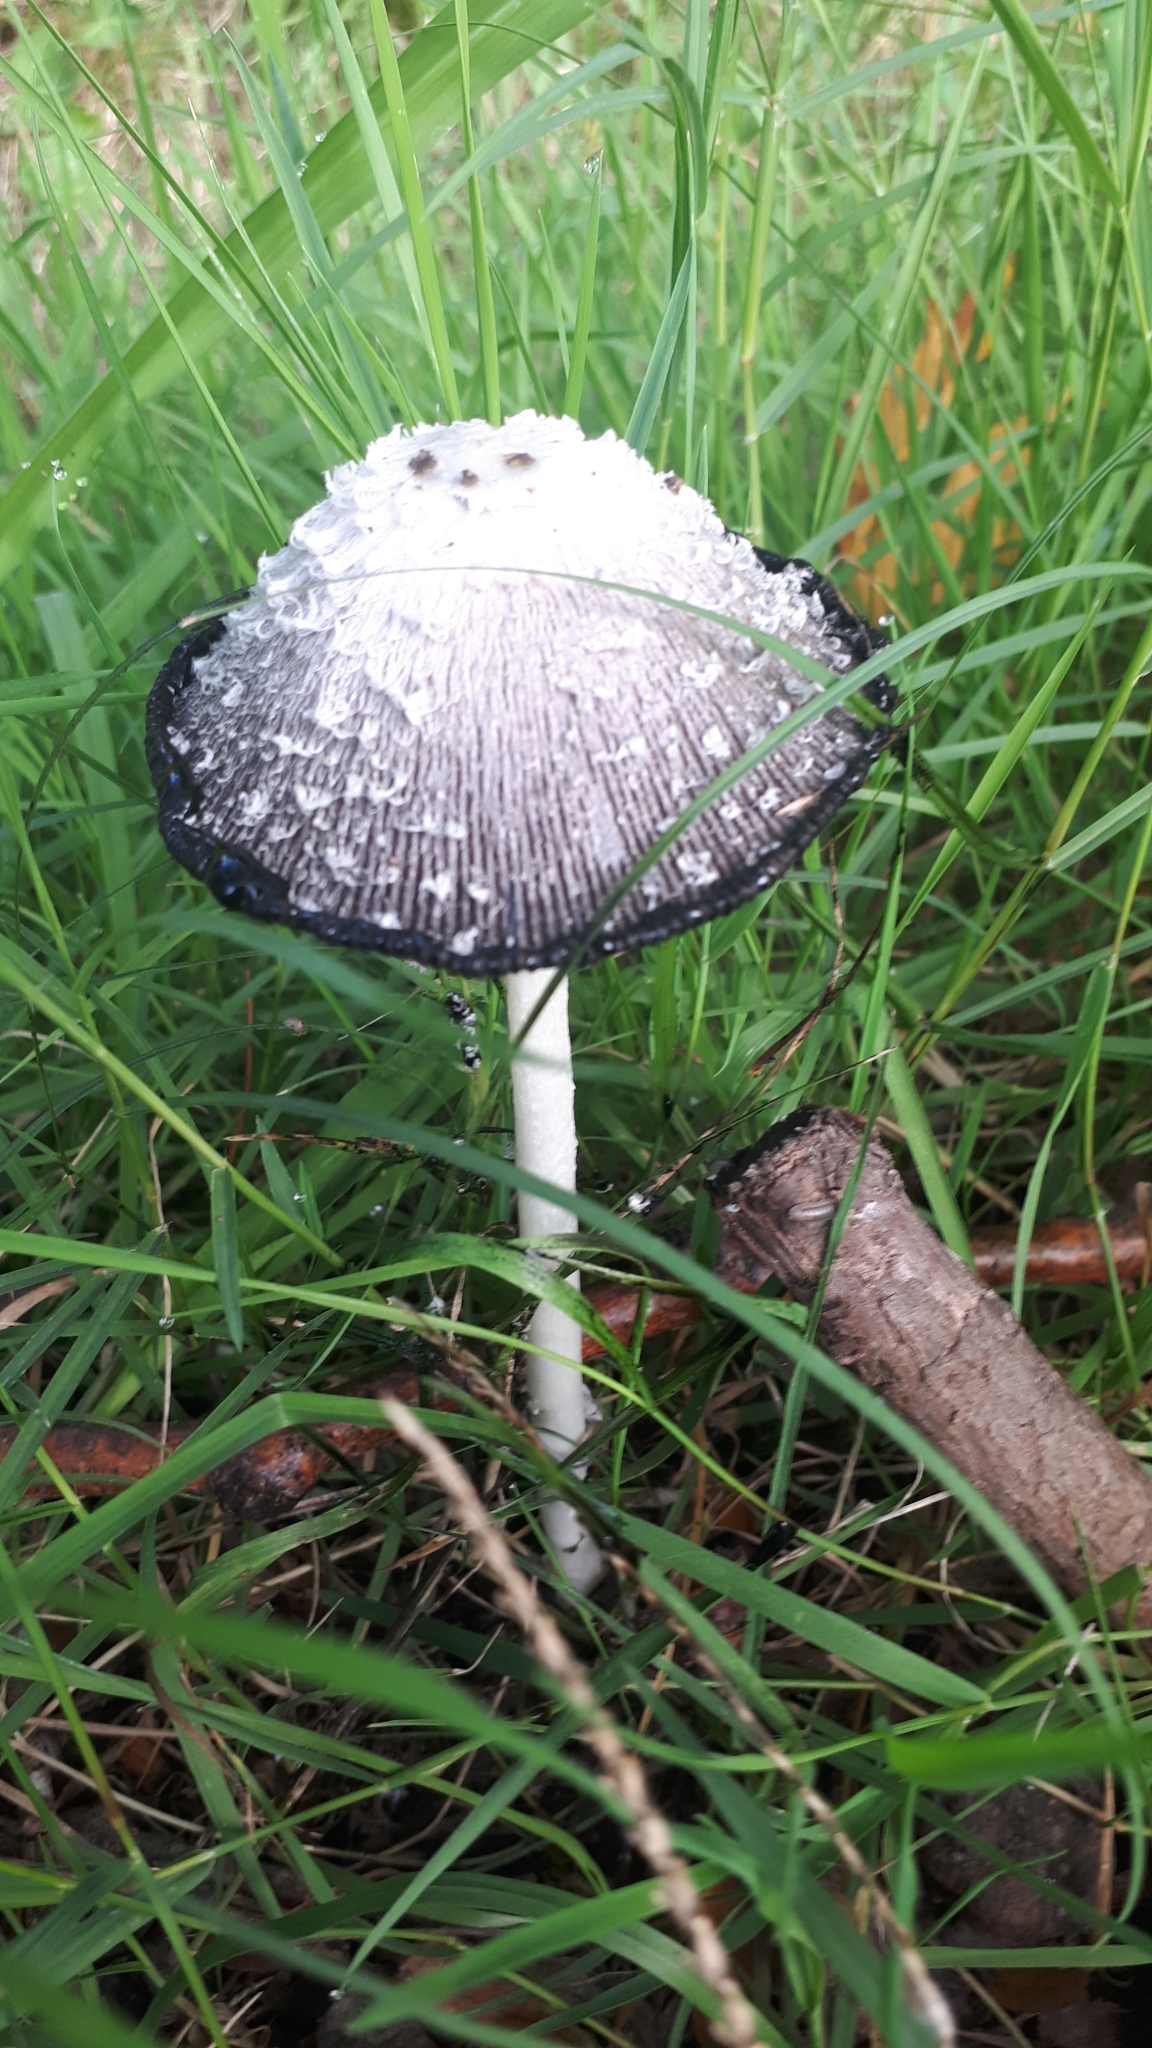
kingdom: Fungi
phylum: Basidiomycota
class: Agaricomycetes
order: Agaricales
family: Agaricaceae
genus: Coprinus
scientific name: Coprinus comatus
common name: Lawyer's wig
